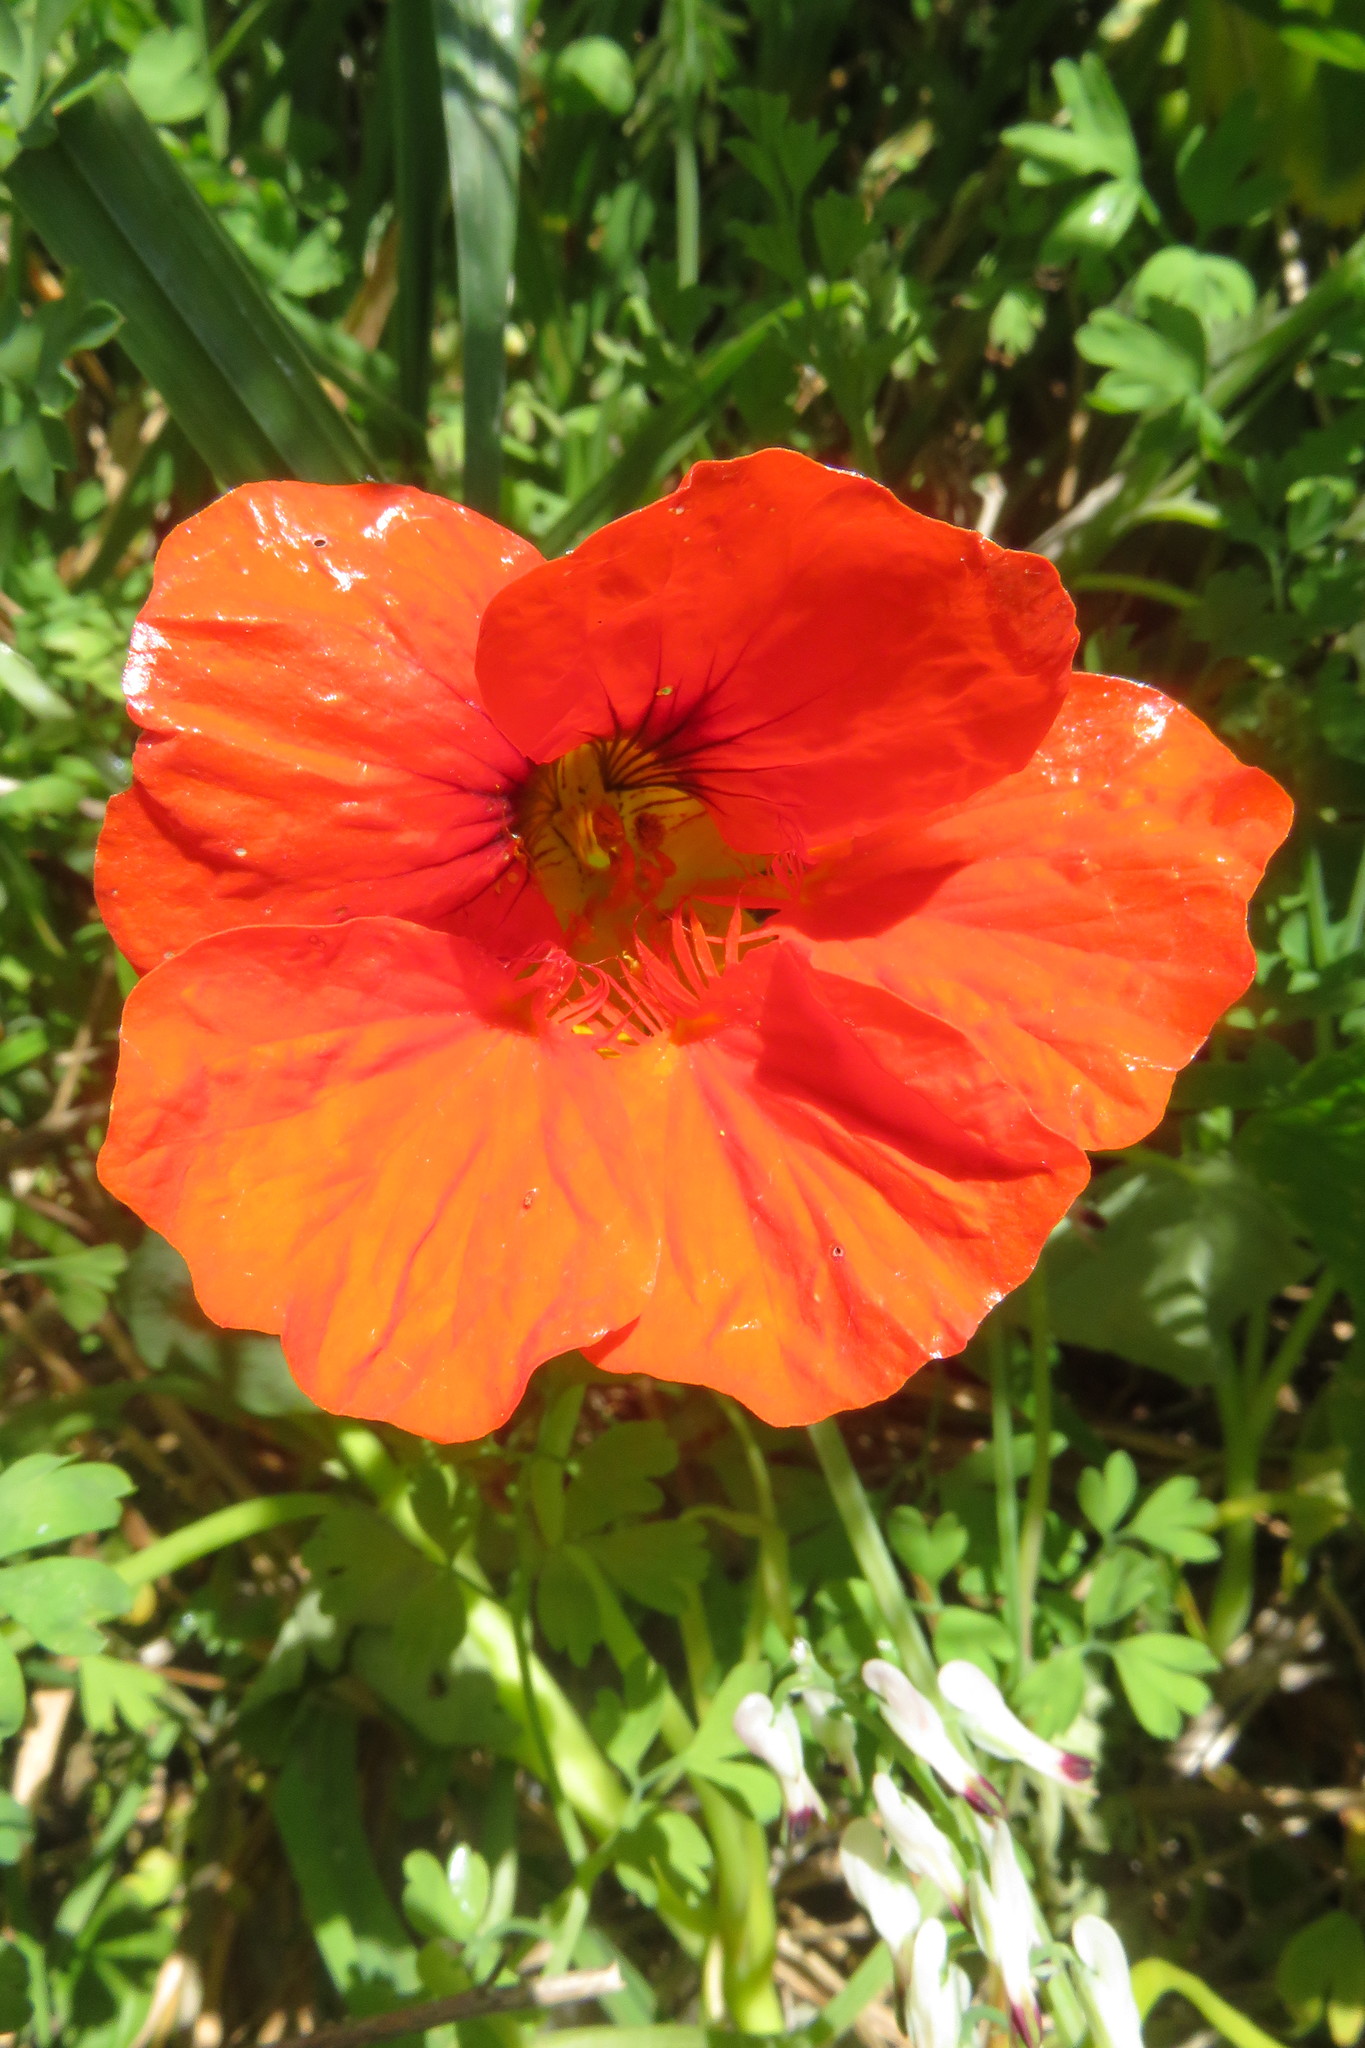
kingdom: Plantae
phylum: Tracheophyta
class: Magnoliopsida
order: Brassicales
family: Tropaeolaceae
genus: Tropaeolum
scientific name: Tropaeolum majus
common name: Nasturtium
